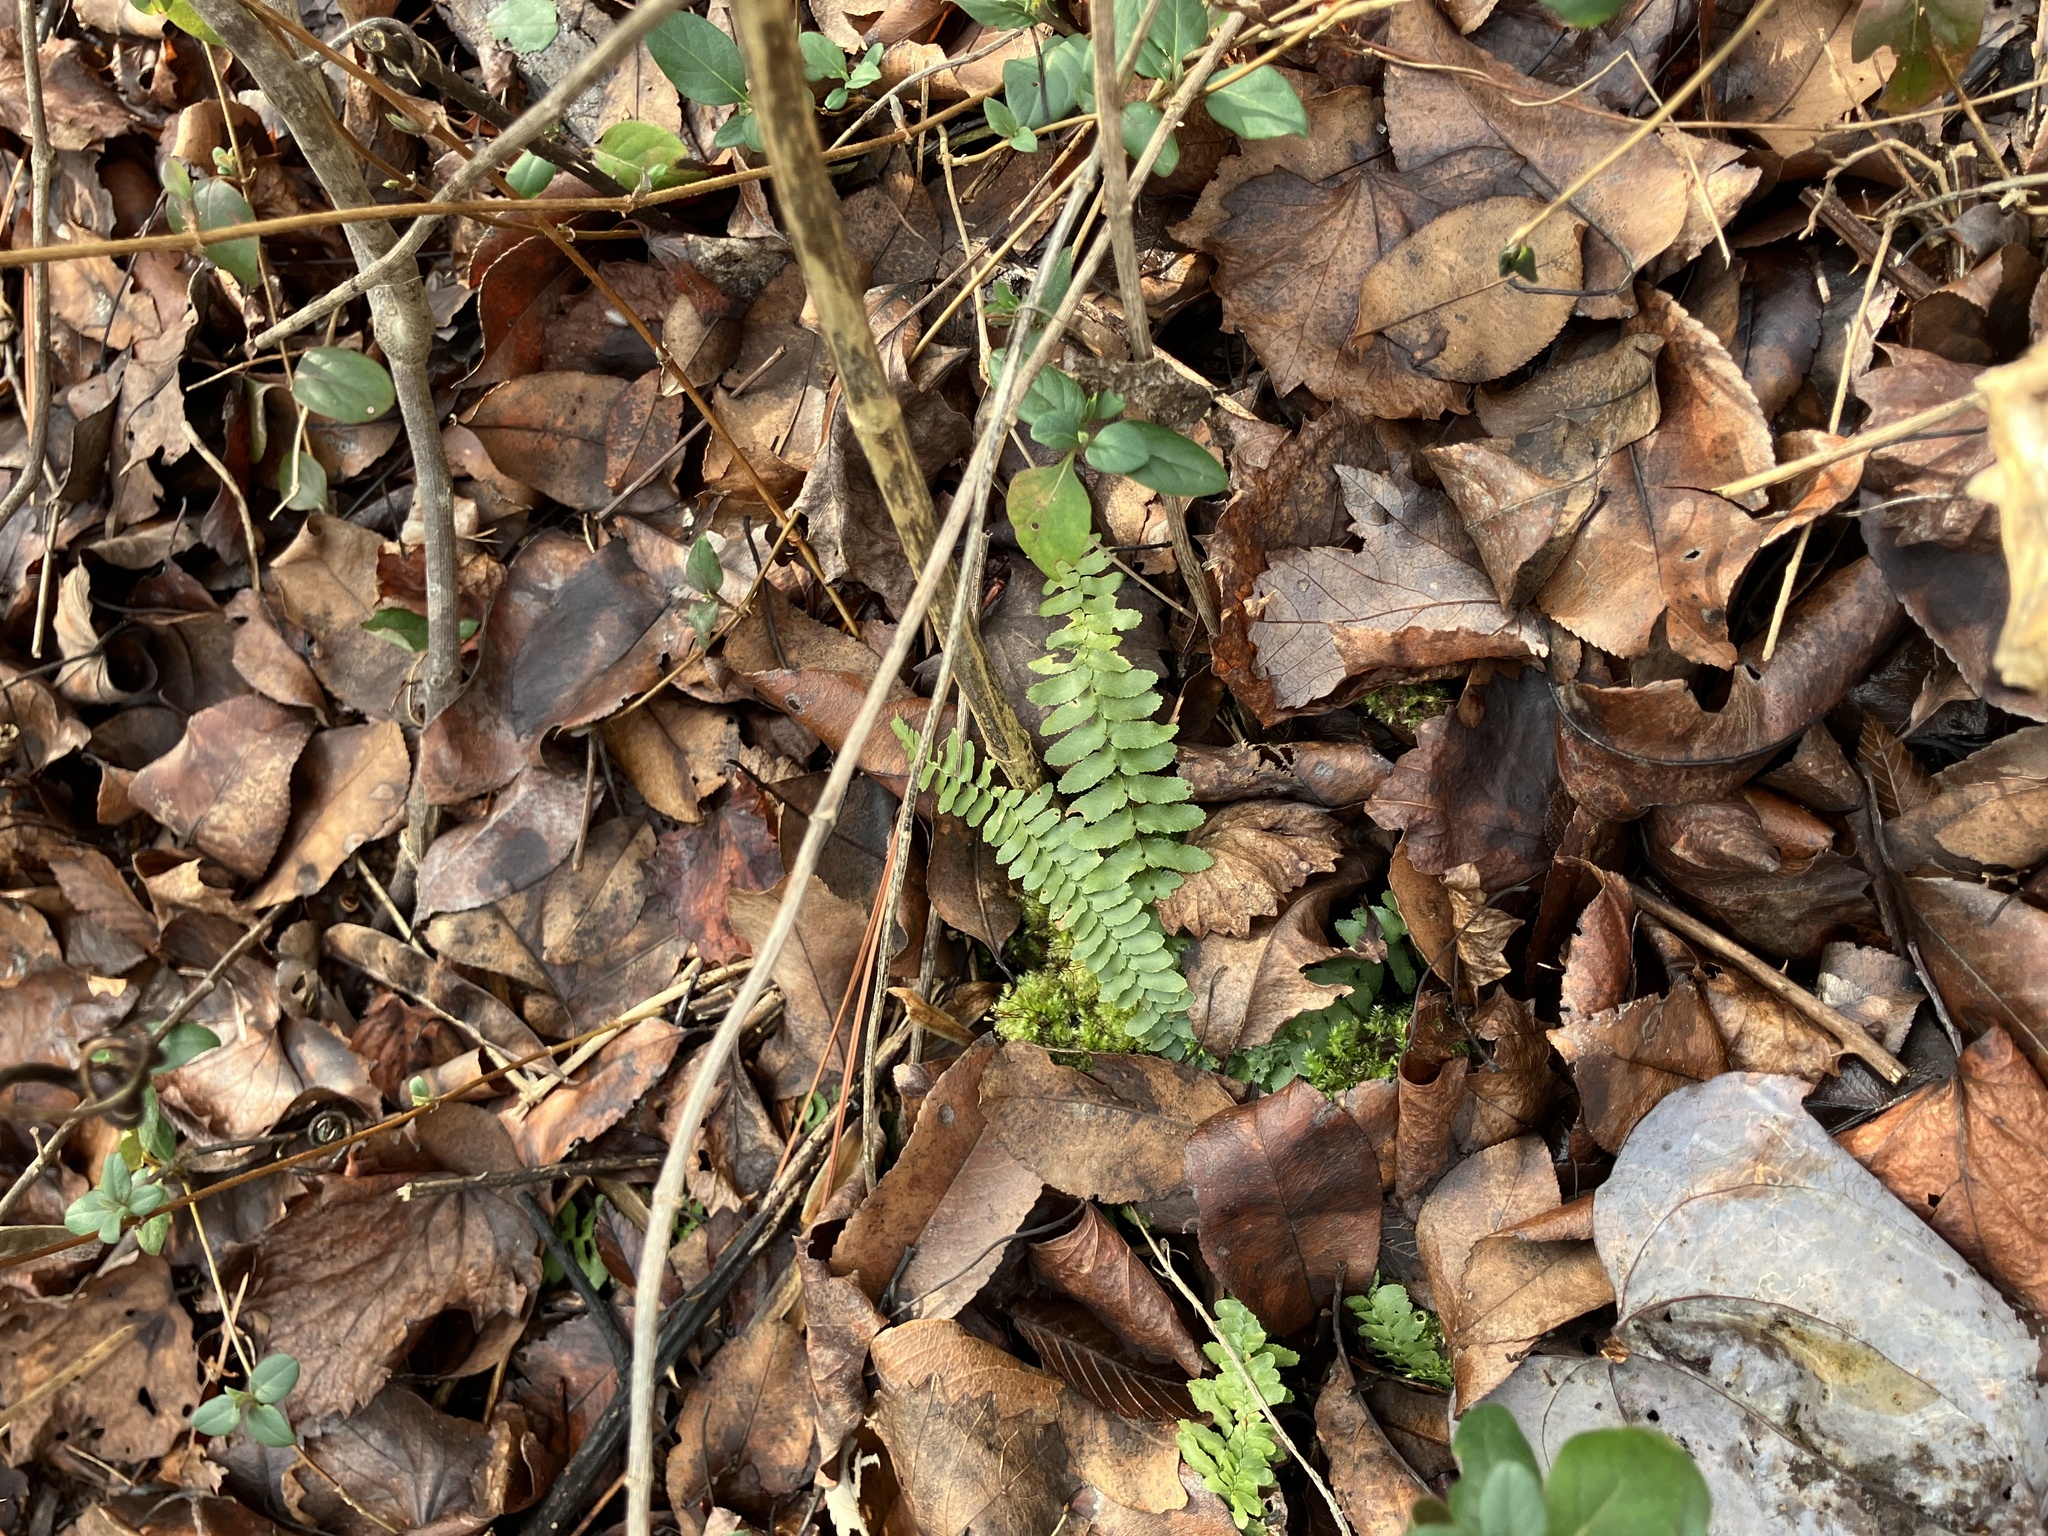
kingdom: Plantae
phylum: Tracheophyta
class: Polypodiopsida
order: Polypodiales
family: Aspleniaceae
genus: Asplenium
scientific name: Asplenium platyneuron
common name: Ebony spleenwort
